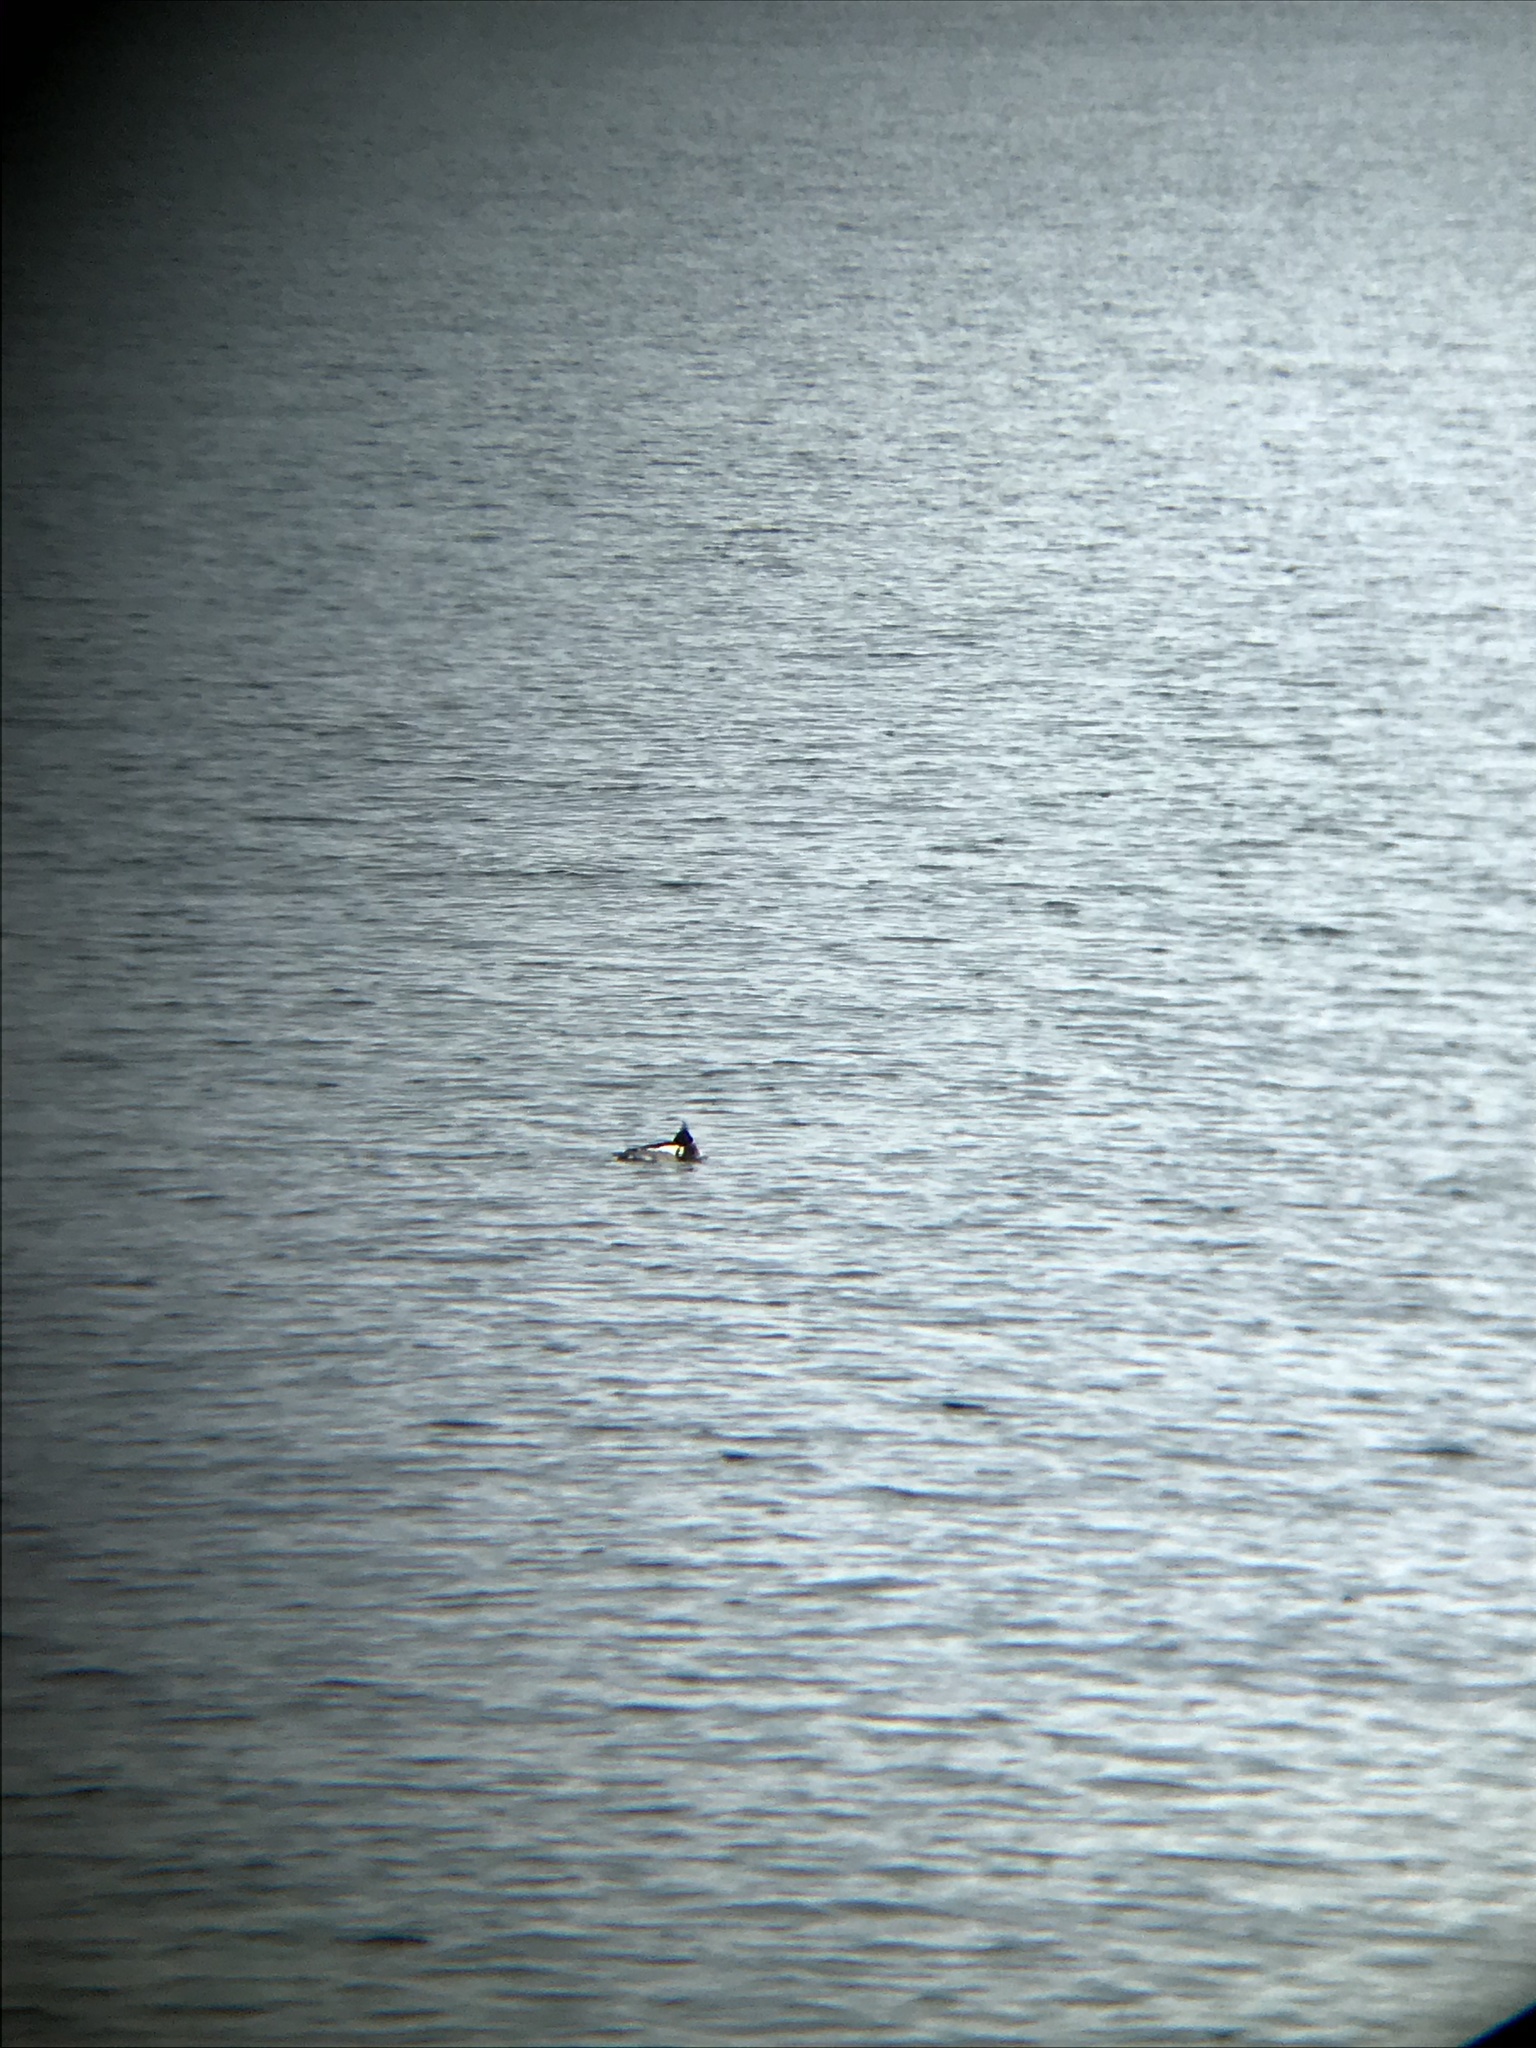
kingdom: Animalia
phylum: Chordata
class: Aves
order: Anseriformes
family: Anatidae
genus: Mergus
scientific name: Mergus serrator
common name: Red-breasted merganser
